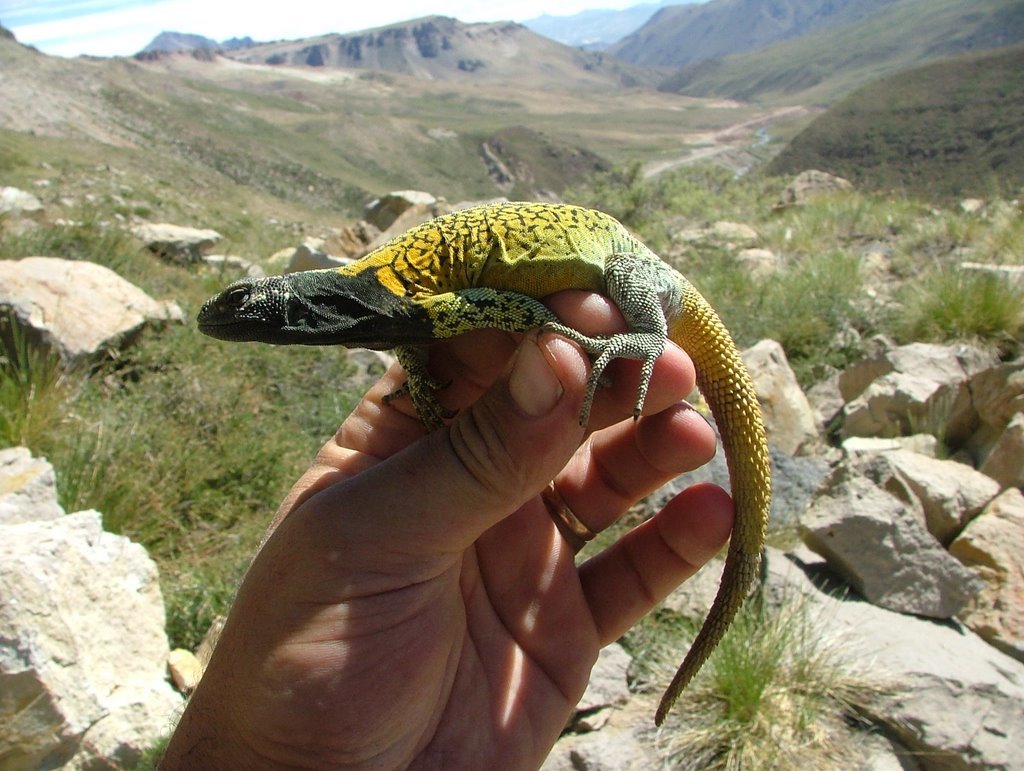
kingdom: Animalia
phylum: Chordata
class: Squamata
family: Liolaemidae
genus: Phymaturus
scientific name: Phymaturus verdugo
